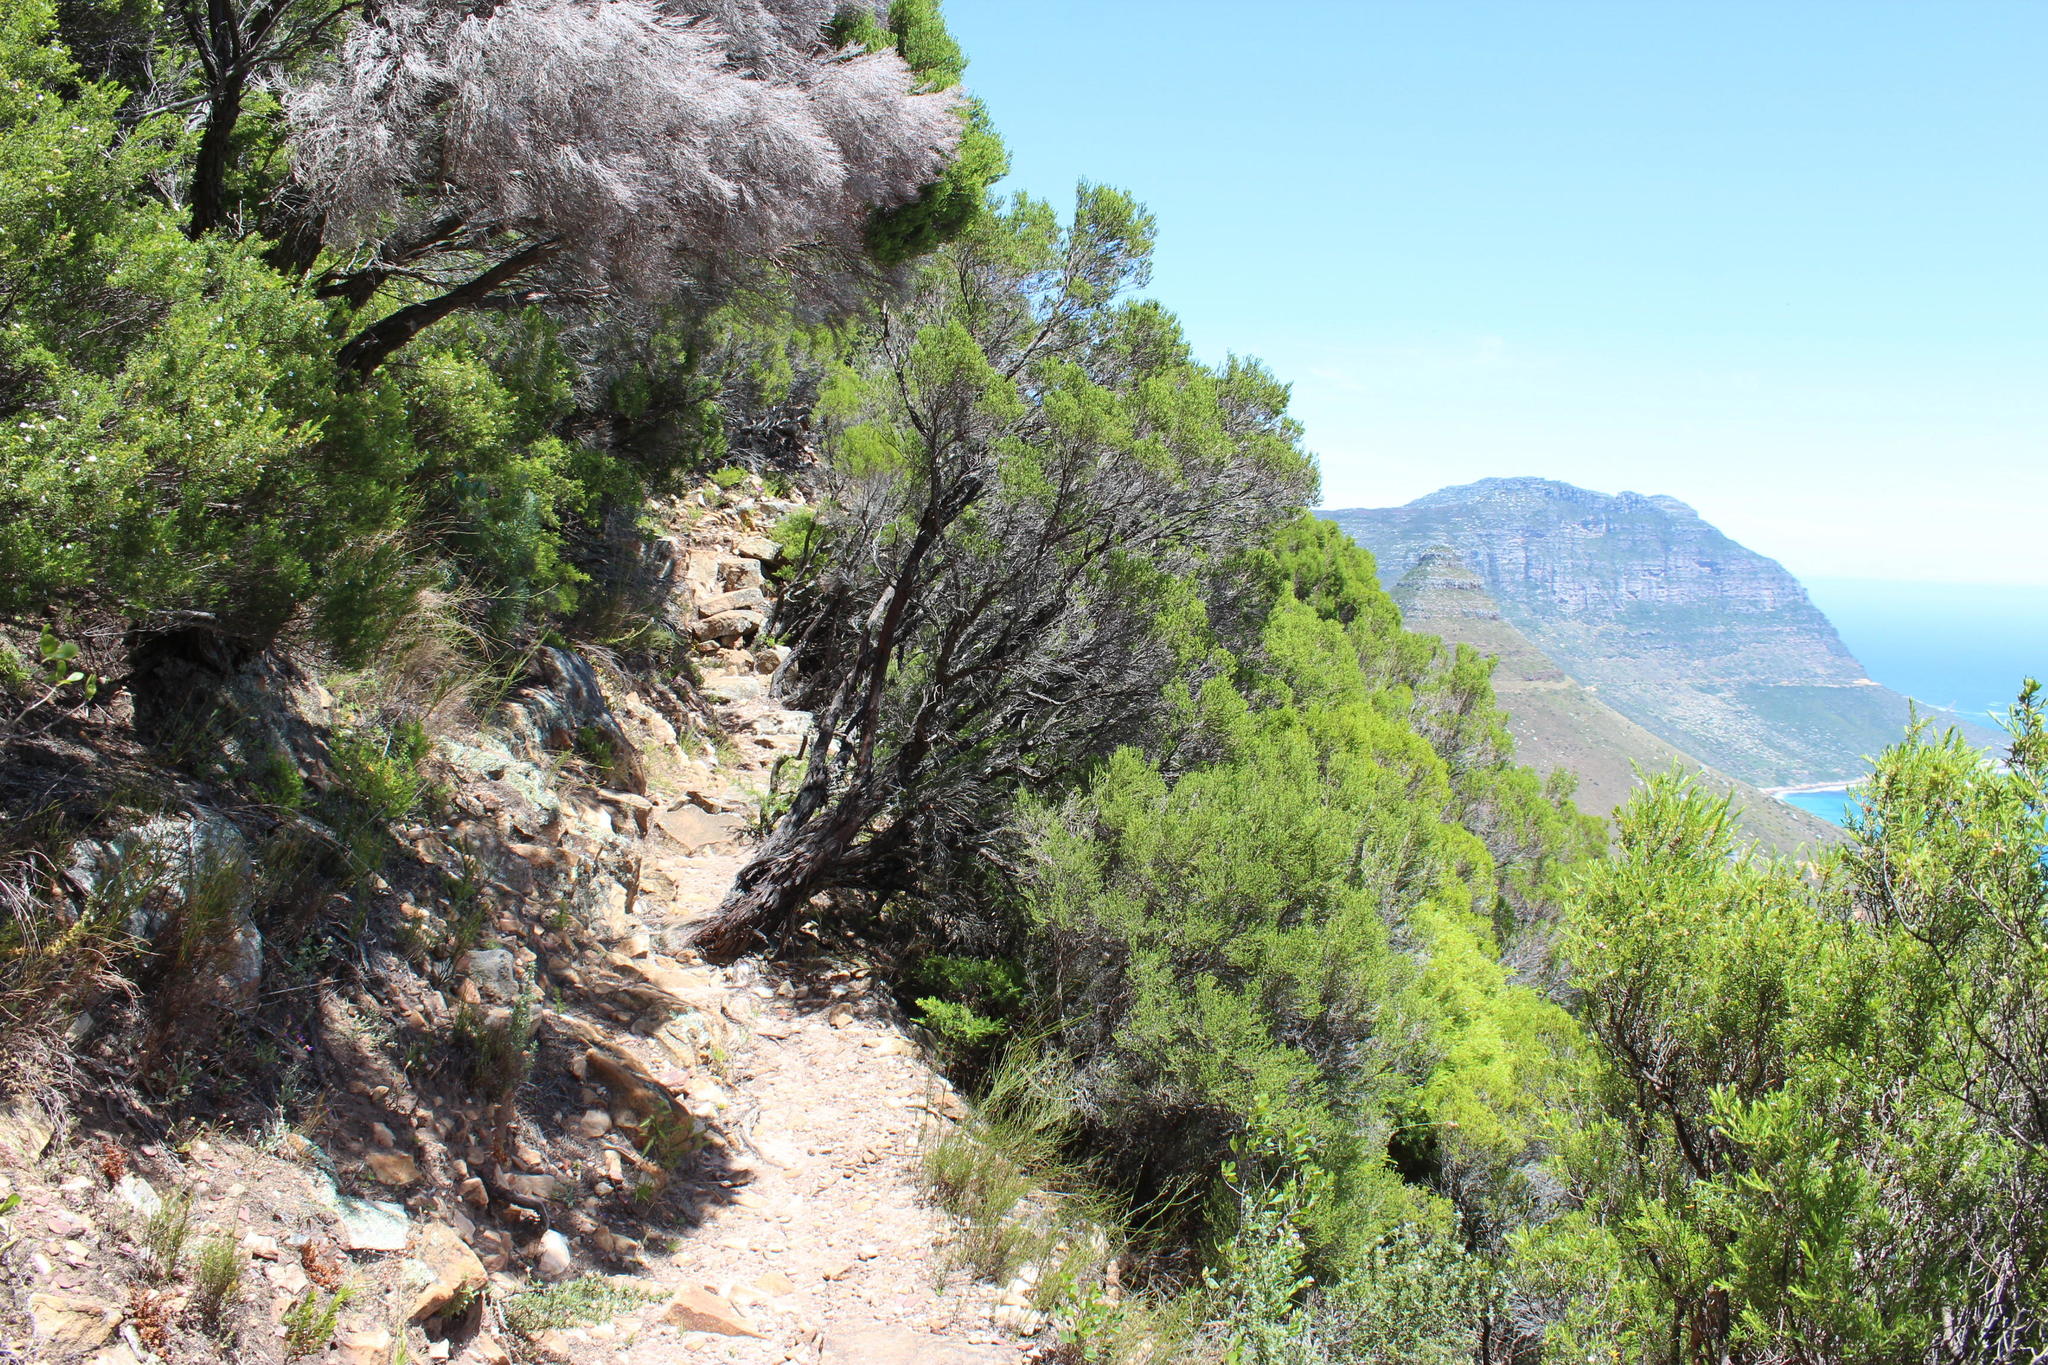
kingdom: Plantae
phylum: Tracheophyta
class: Magnoliopsida
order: Ericales
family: Ericaceae
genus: Erica
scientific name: Erica tristis
